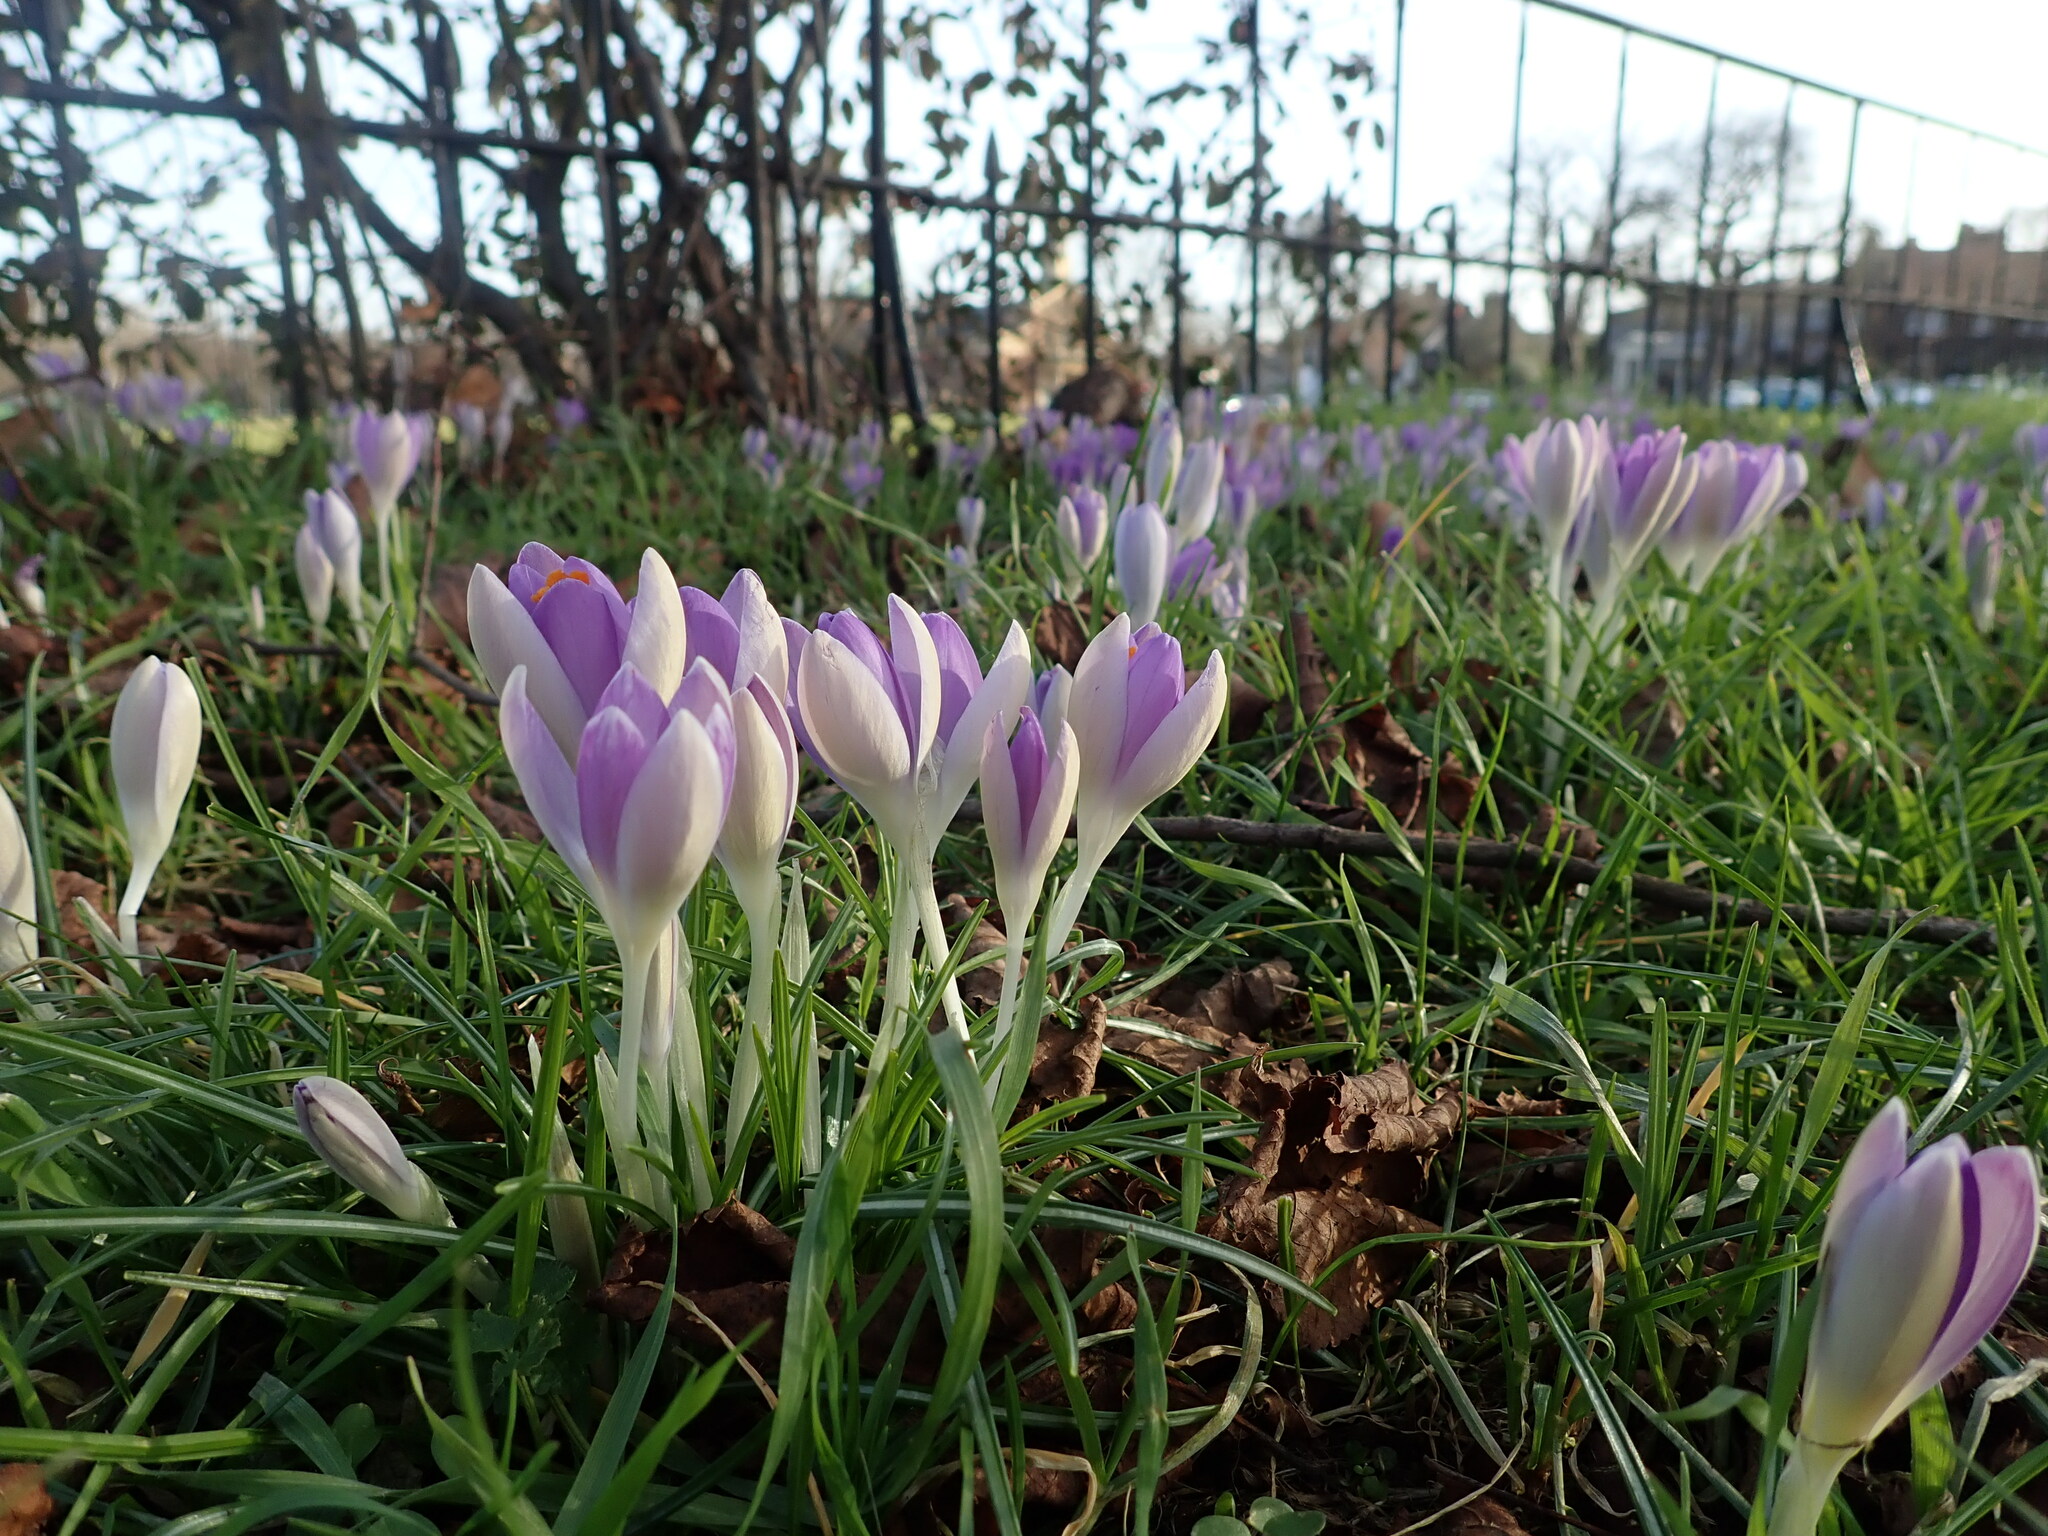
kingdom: Plantae
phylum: Tracheophyta
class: Liliopsida
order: Asparagales
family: Iridaceae
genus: Crocus
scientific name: Crocus tommasinianus
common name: Early crocus
